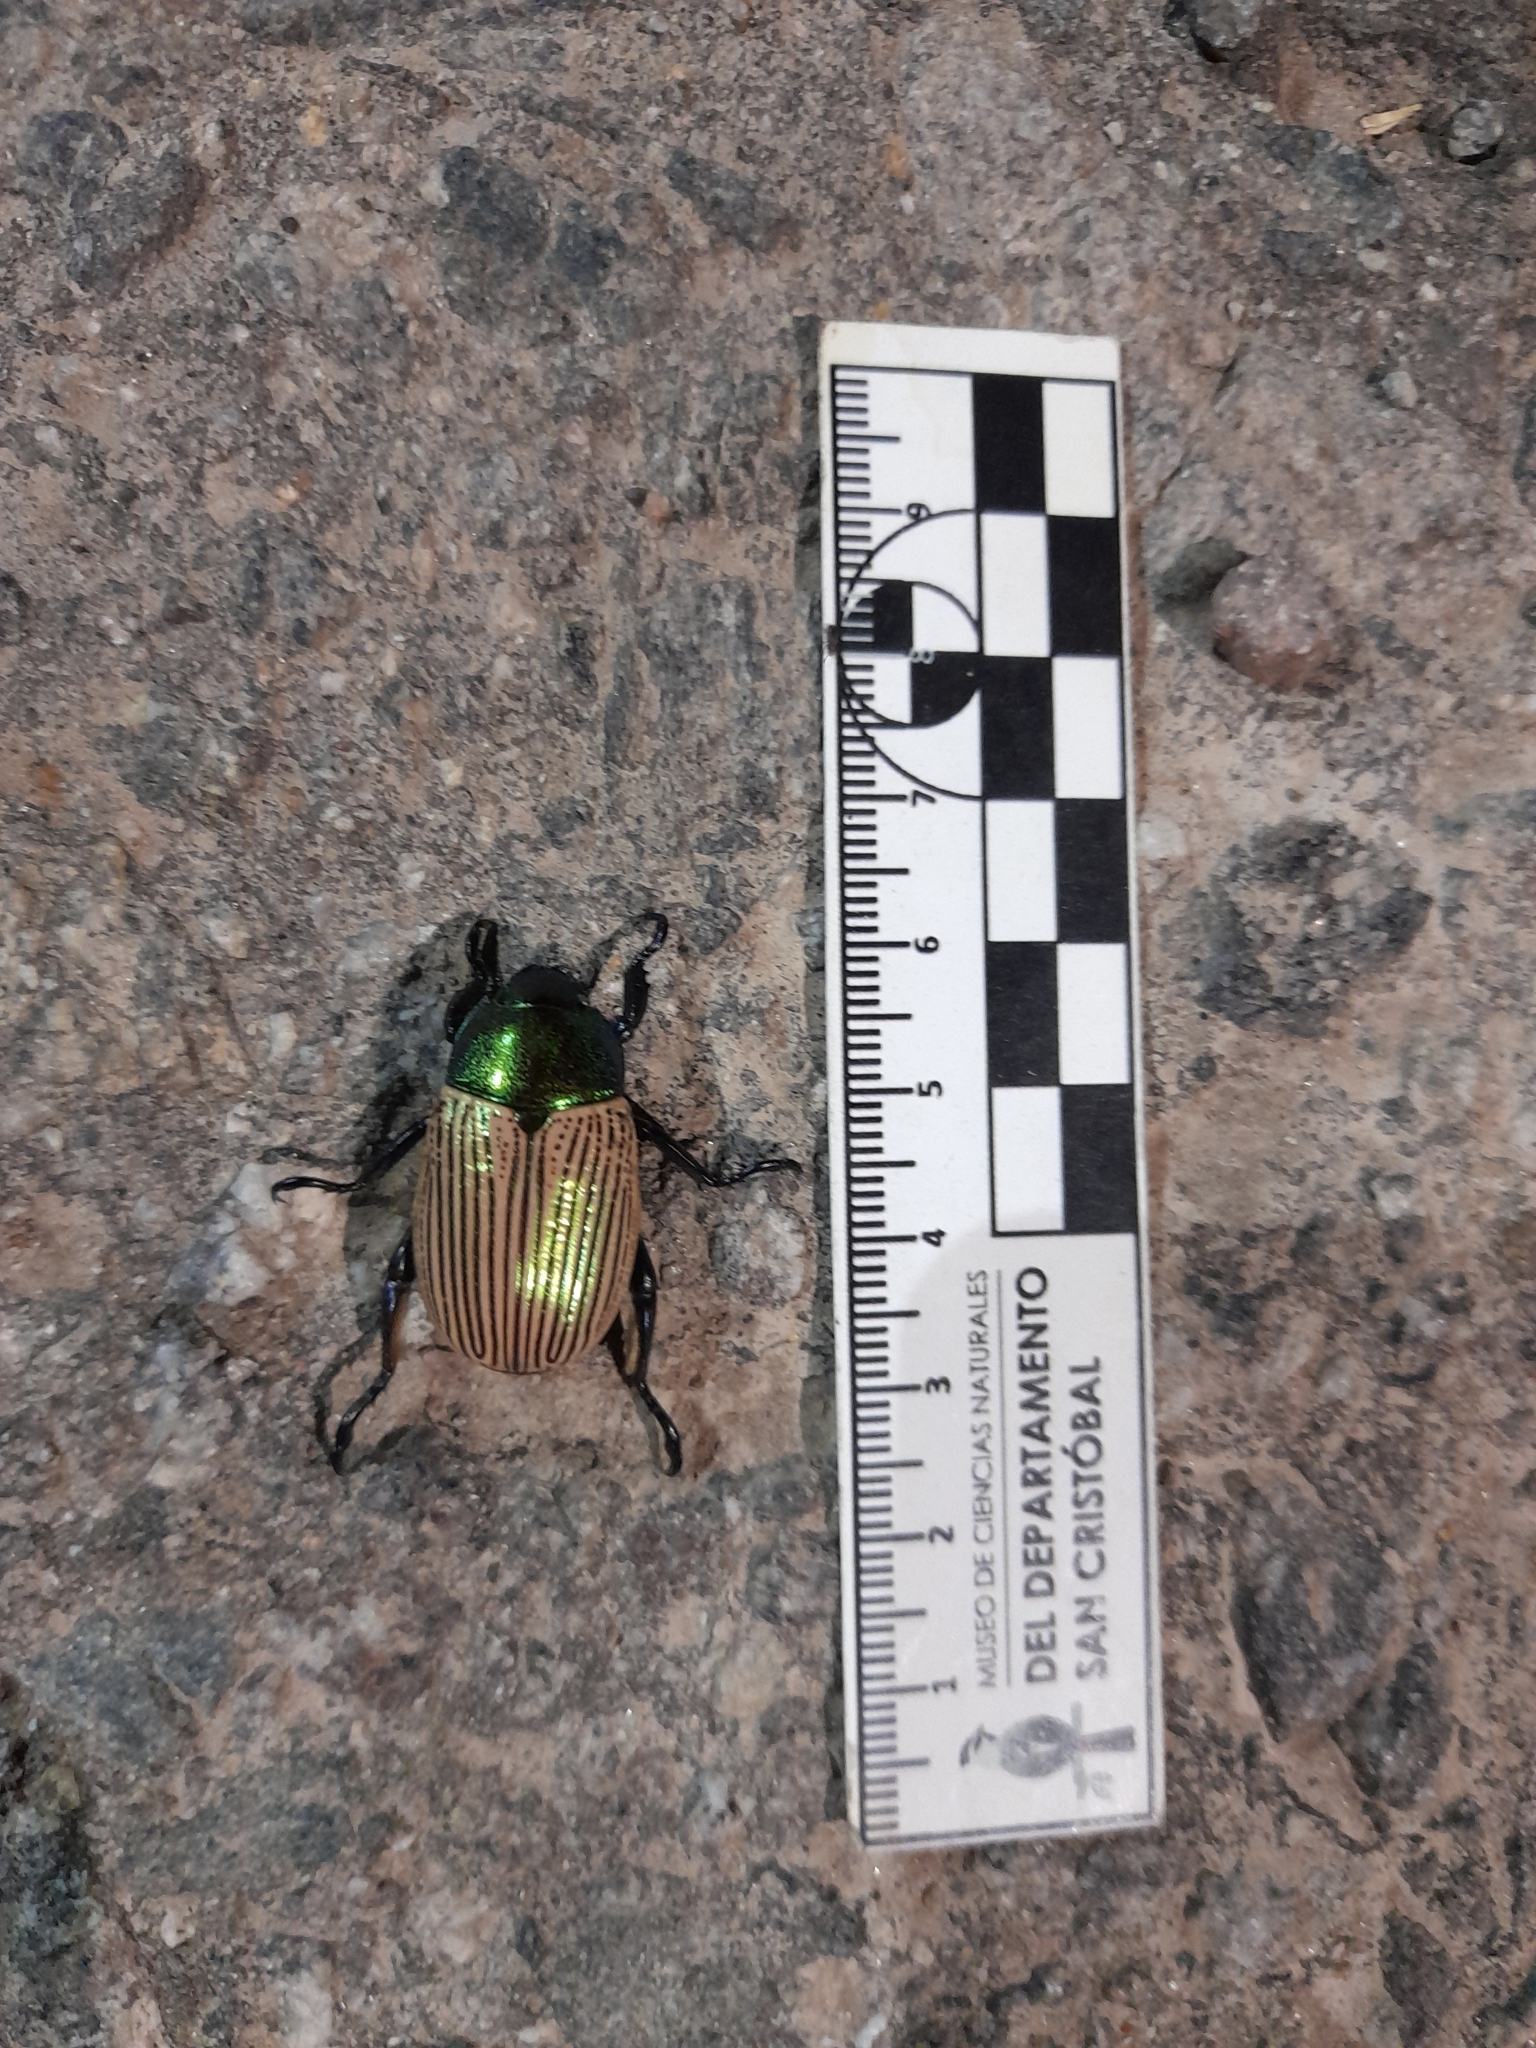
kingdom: Animalia
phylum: Arthropoda
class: Insecta
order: Coleoptera
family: Scarabaeidae
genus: Epichalcoplethis
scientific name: Epichalcoplethis sanctijacobi
